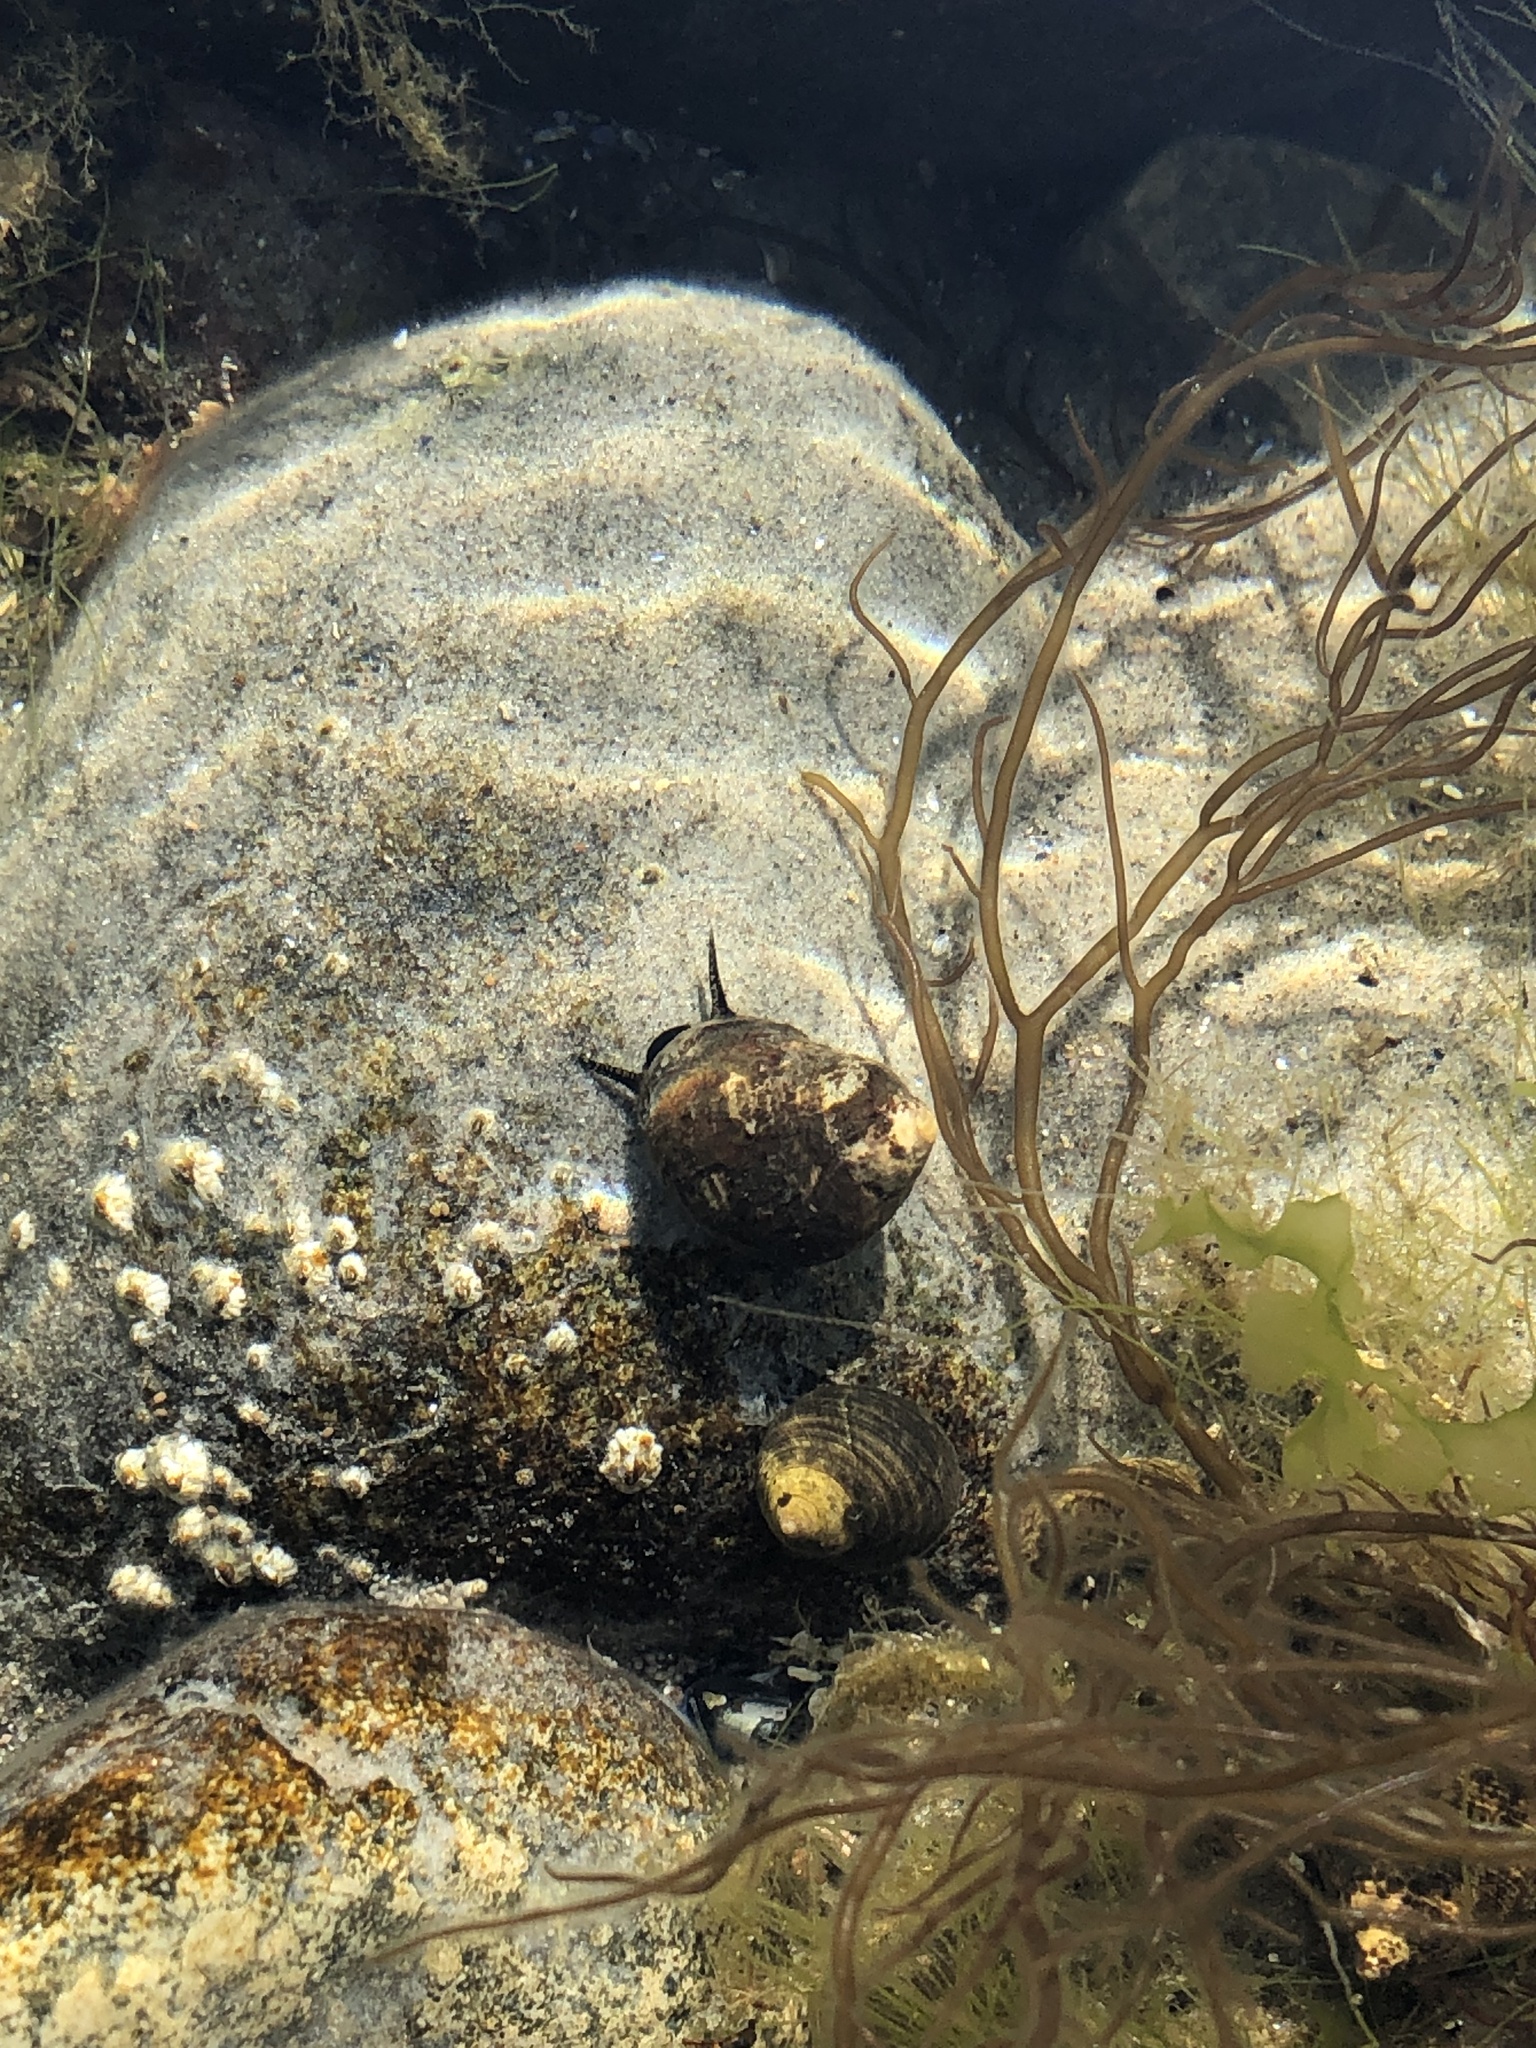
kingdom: Animalia
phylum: Mollusca
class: Gastropoda
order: Littorinimorpha
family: Littorinidae
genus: Littorina
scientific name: Littorina littorea
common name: Common periwinkle
